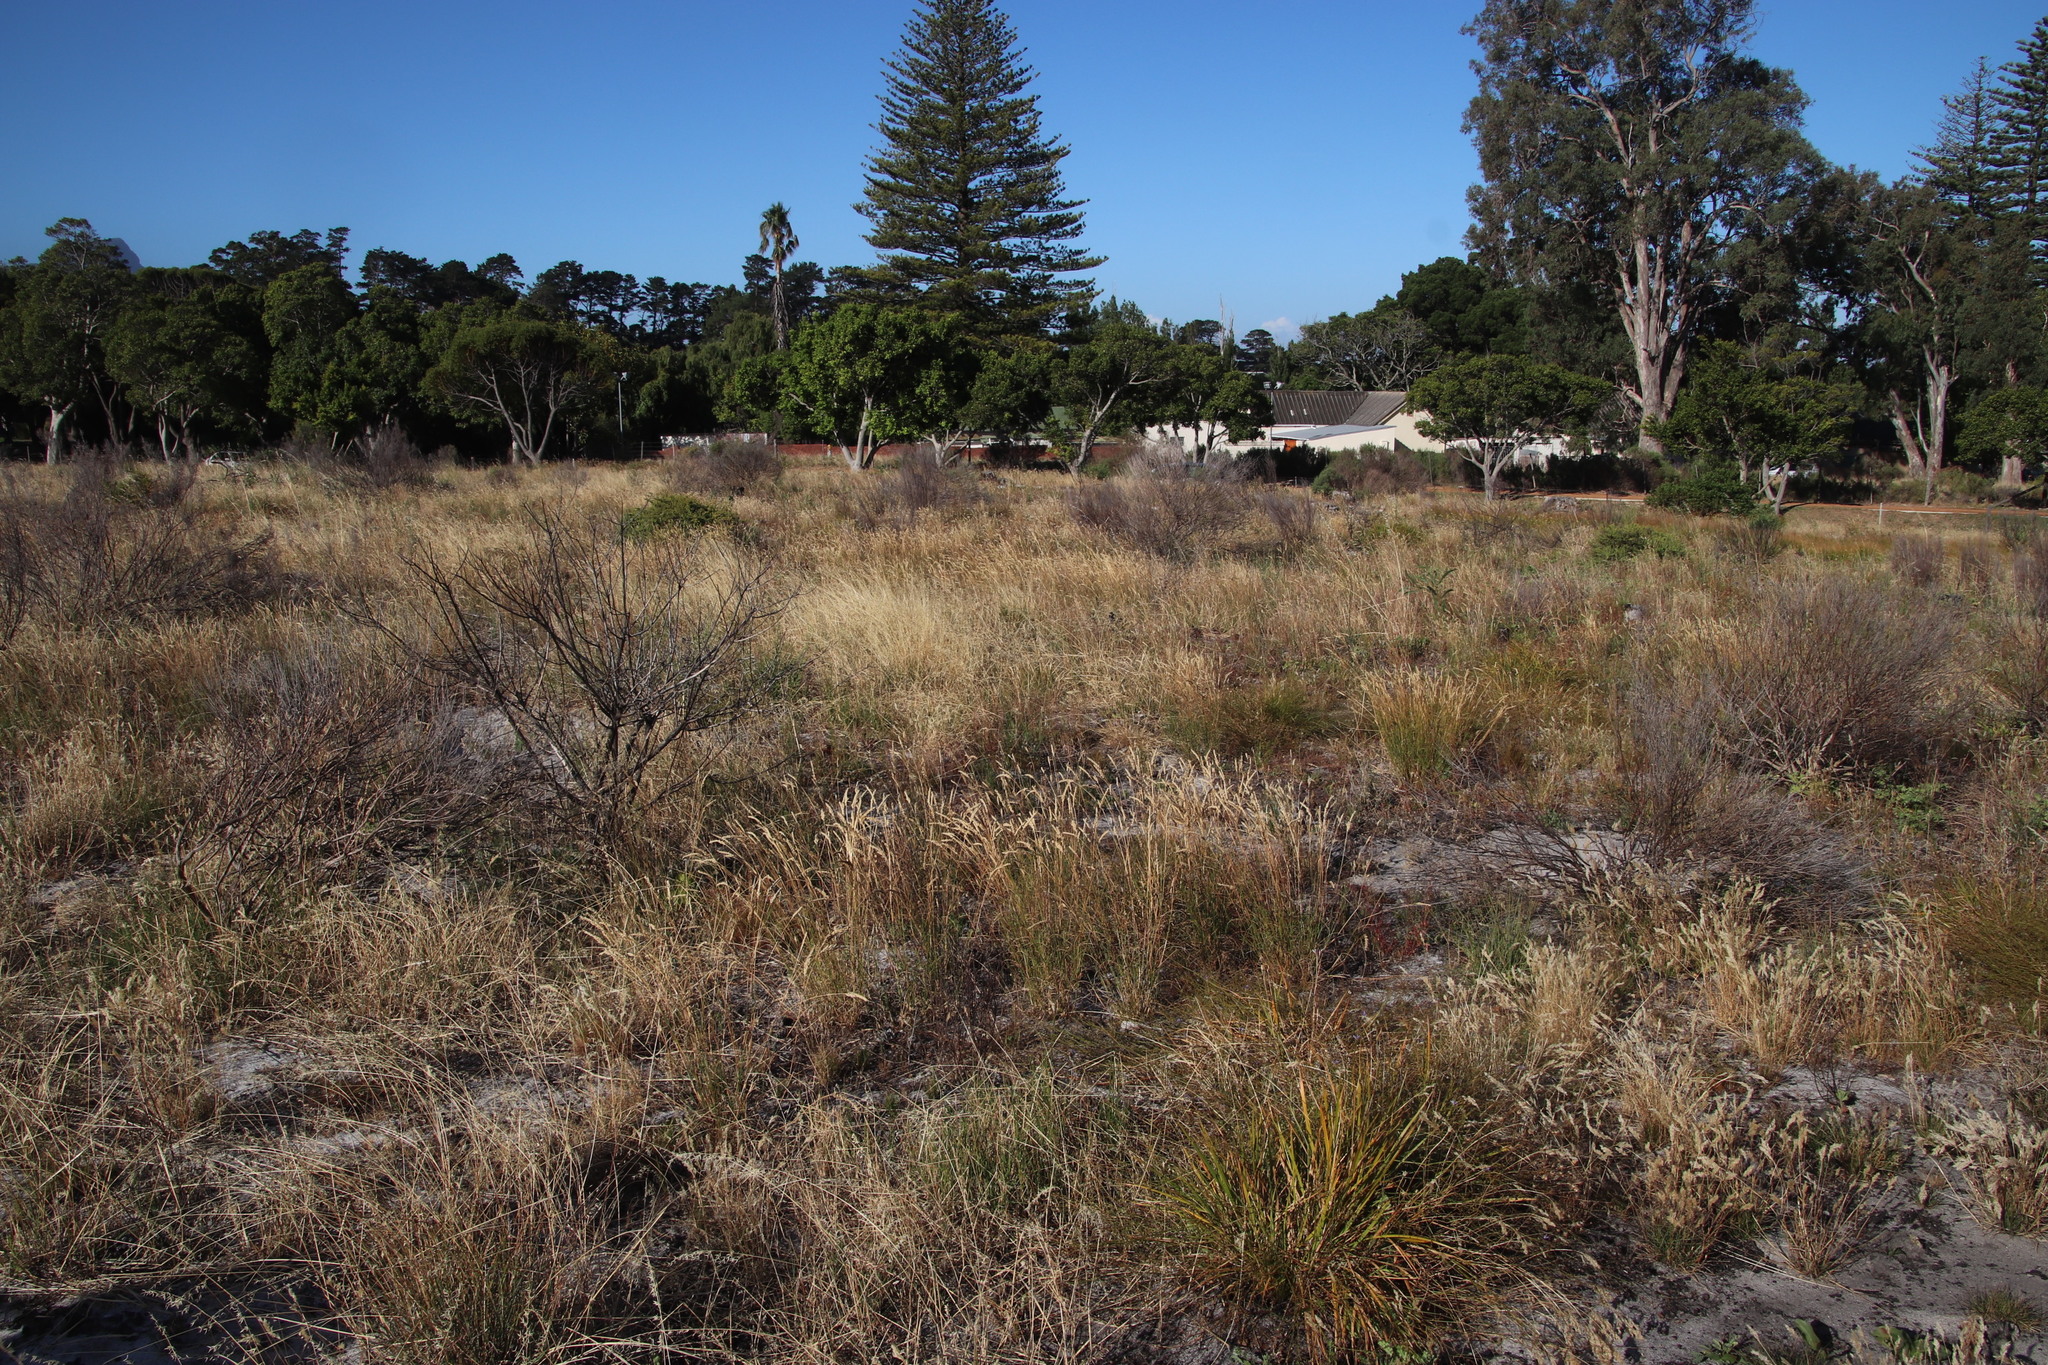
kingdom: Plantae
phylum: Tracheophyta
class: Liliopsida
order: Poales
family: Poaceae
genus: Tribolium
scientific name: Tribolium uniolae
